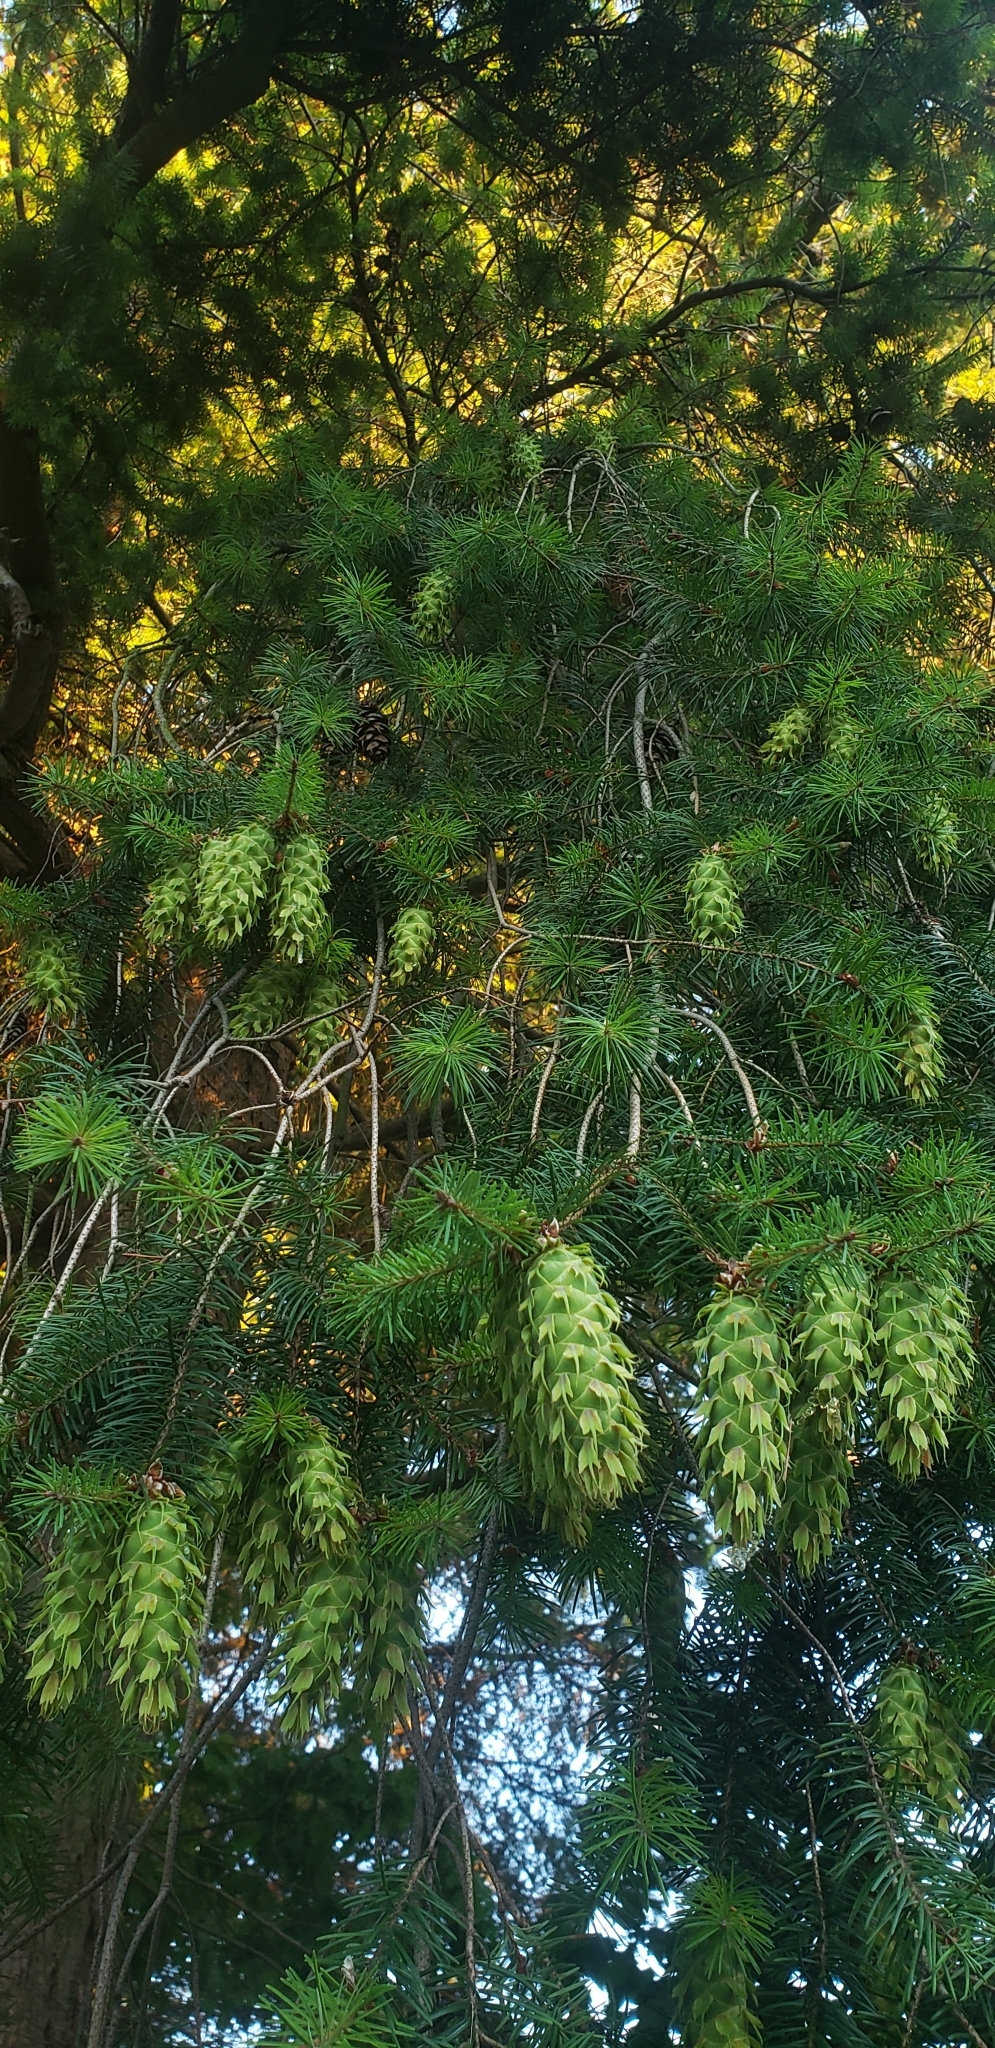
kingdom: Plantae
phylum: Tracheophyta
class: Pinopsida
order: Pinales
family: Pinaceae
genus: Pseudotsuga
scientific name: Pseudotsuga menziesii
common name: Douglas fir
